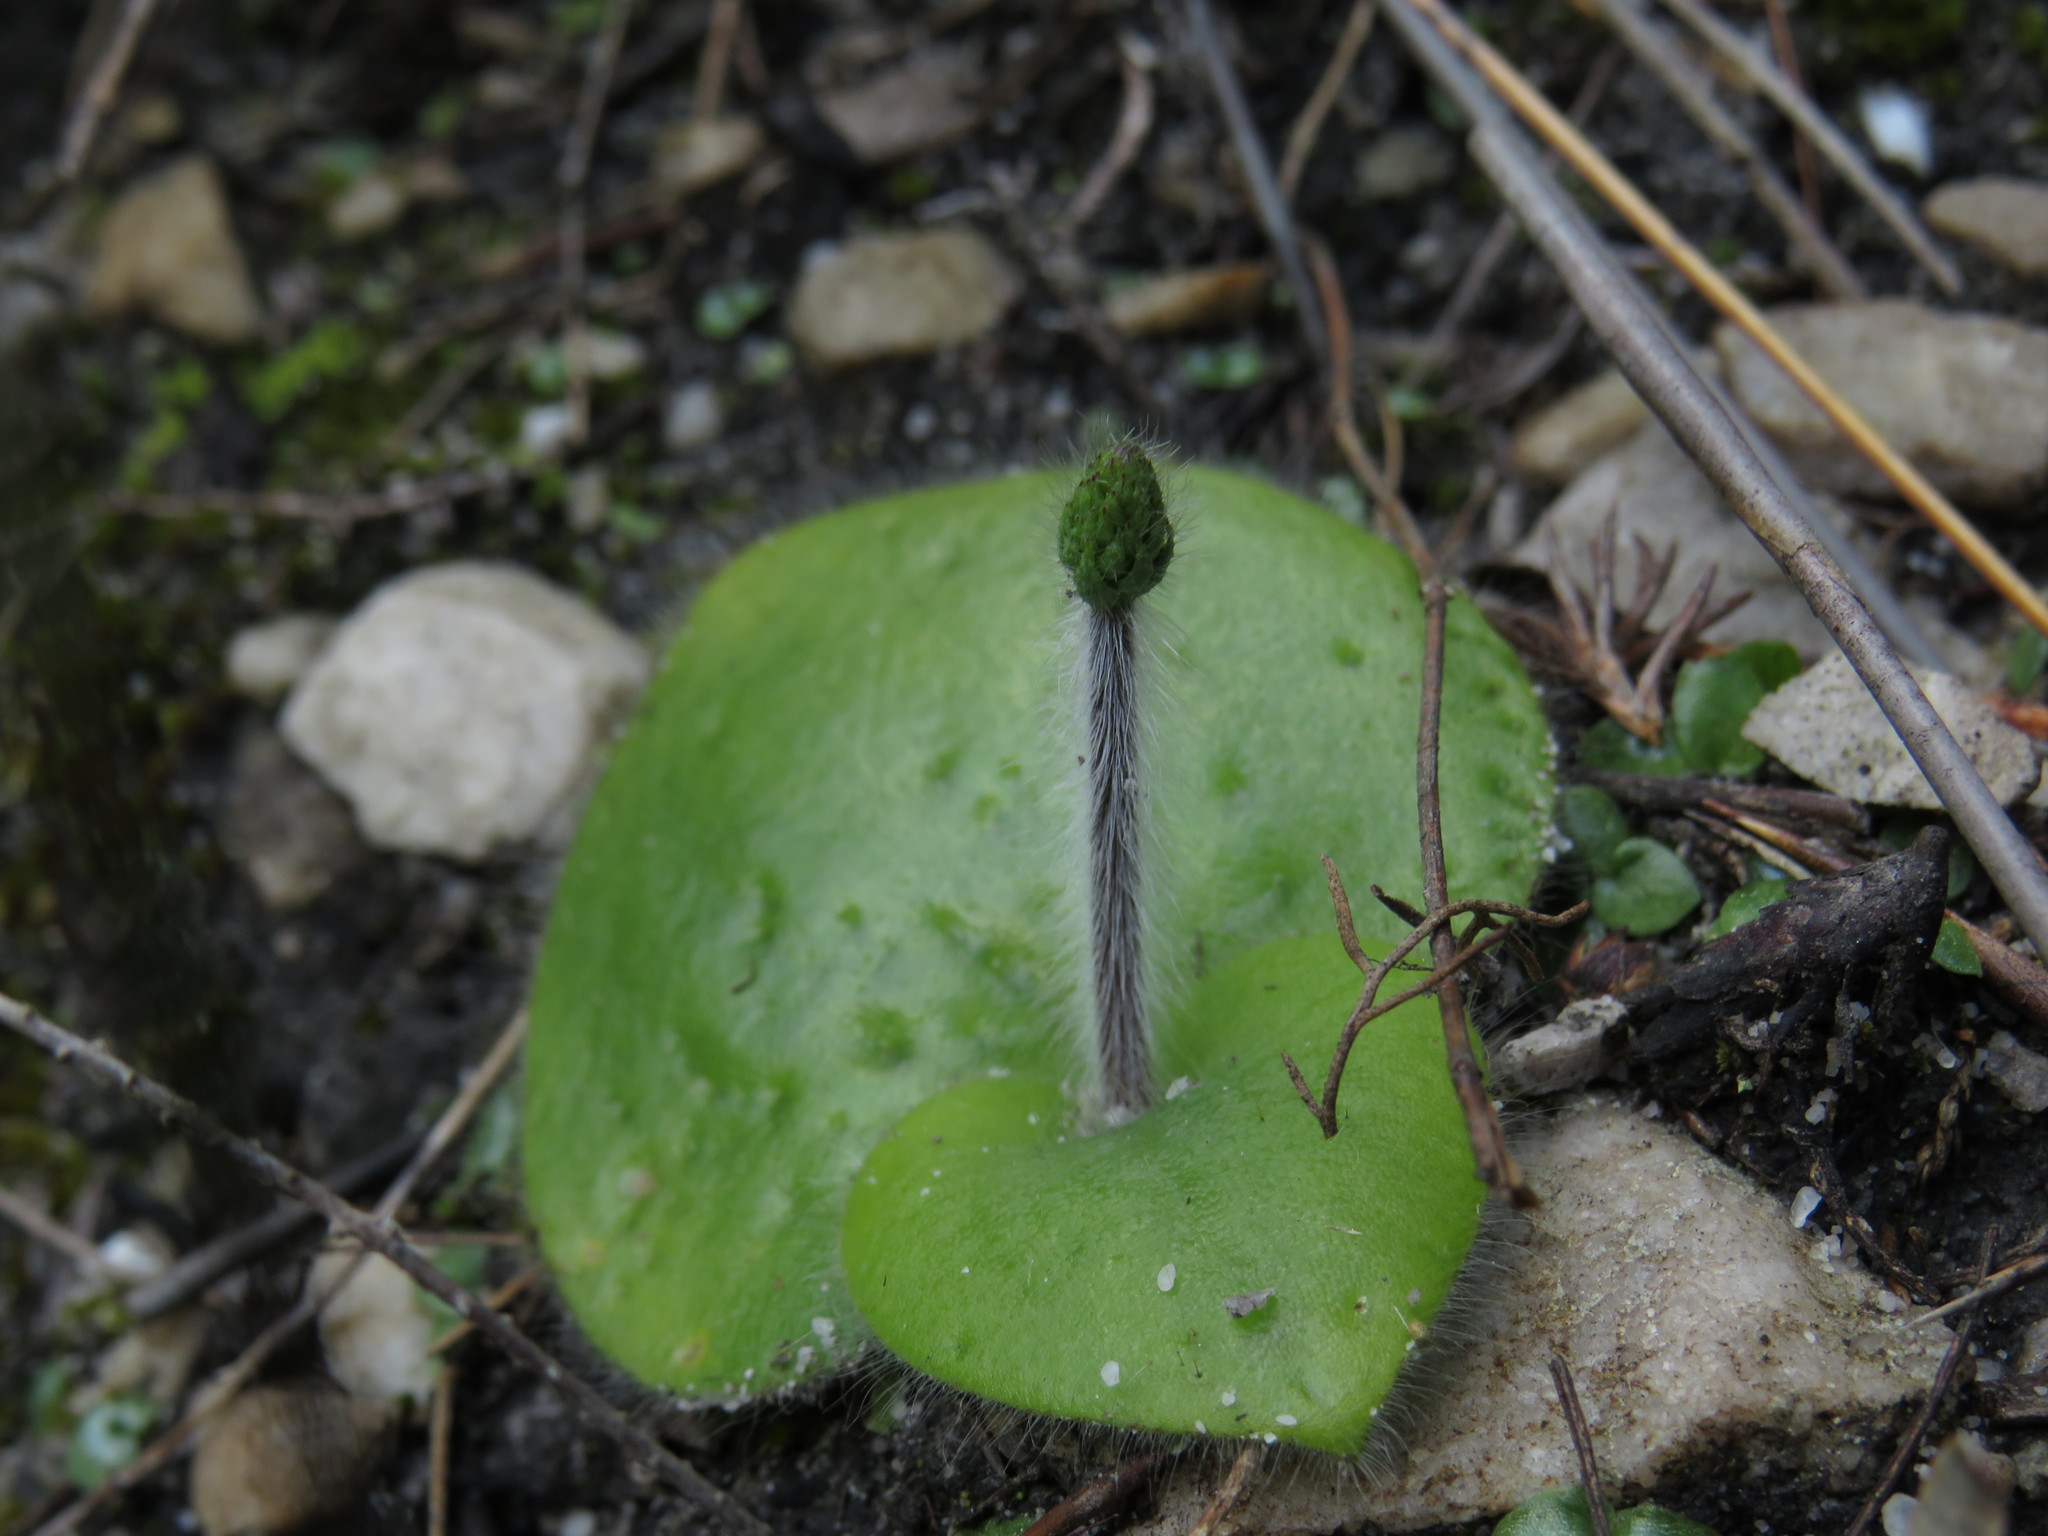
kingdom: Plantae
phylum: Tracheophyta
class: Liliopsida
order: Asparagales
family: Orchidaceae
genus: Holothrix
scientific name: Holothrix villosa
